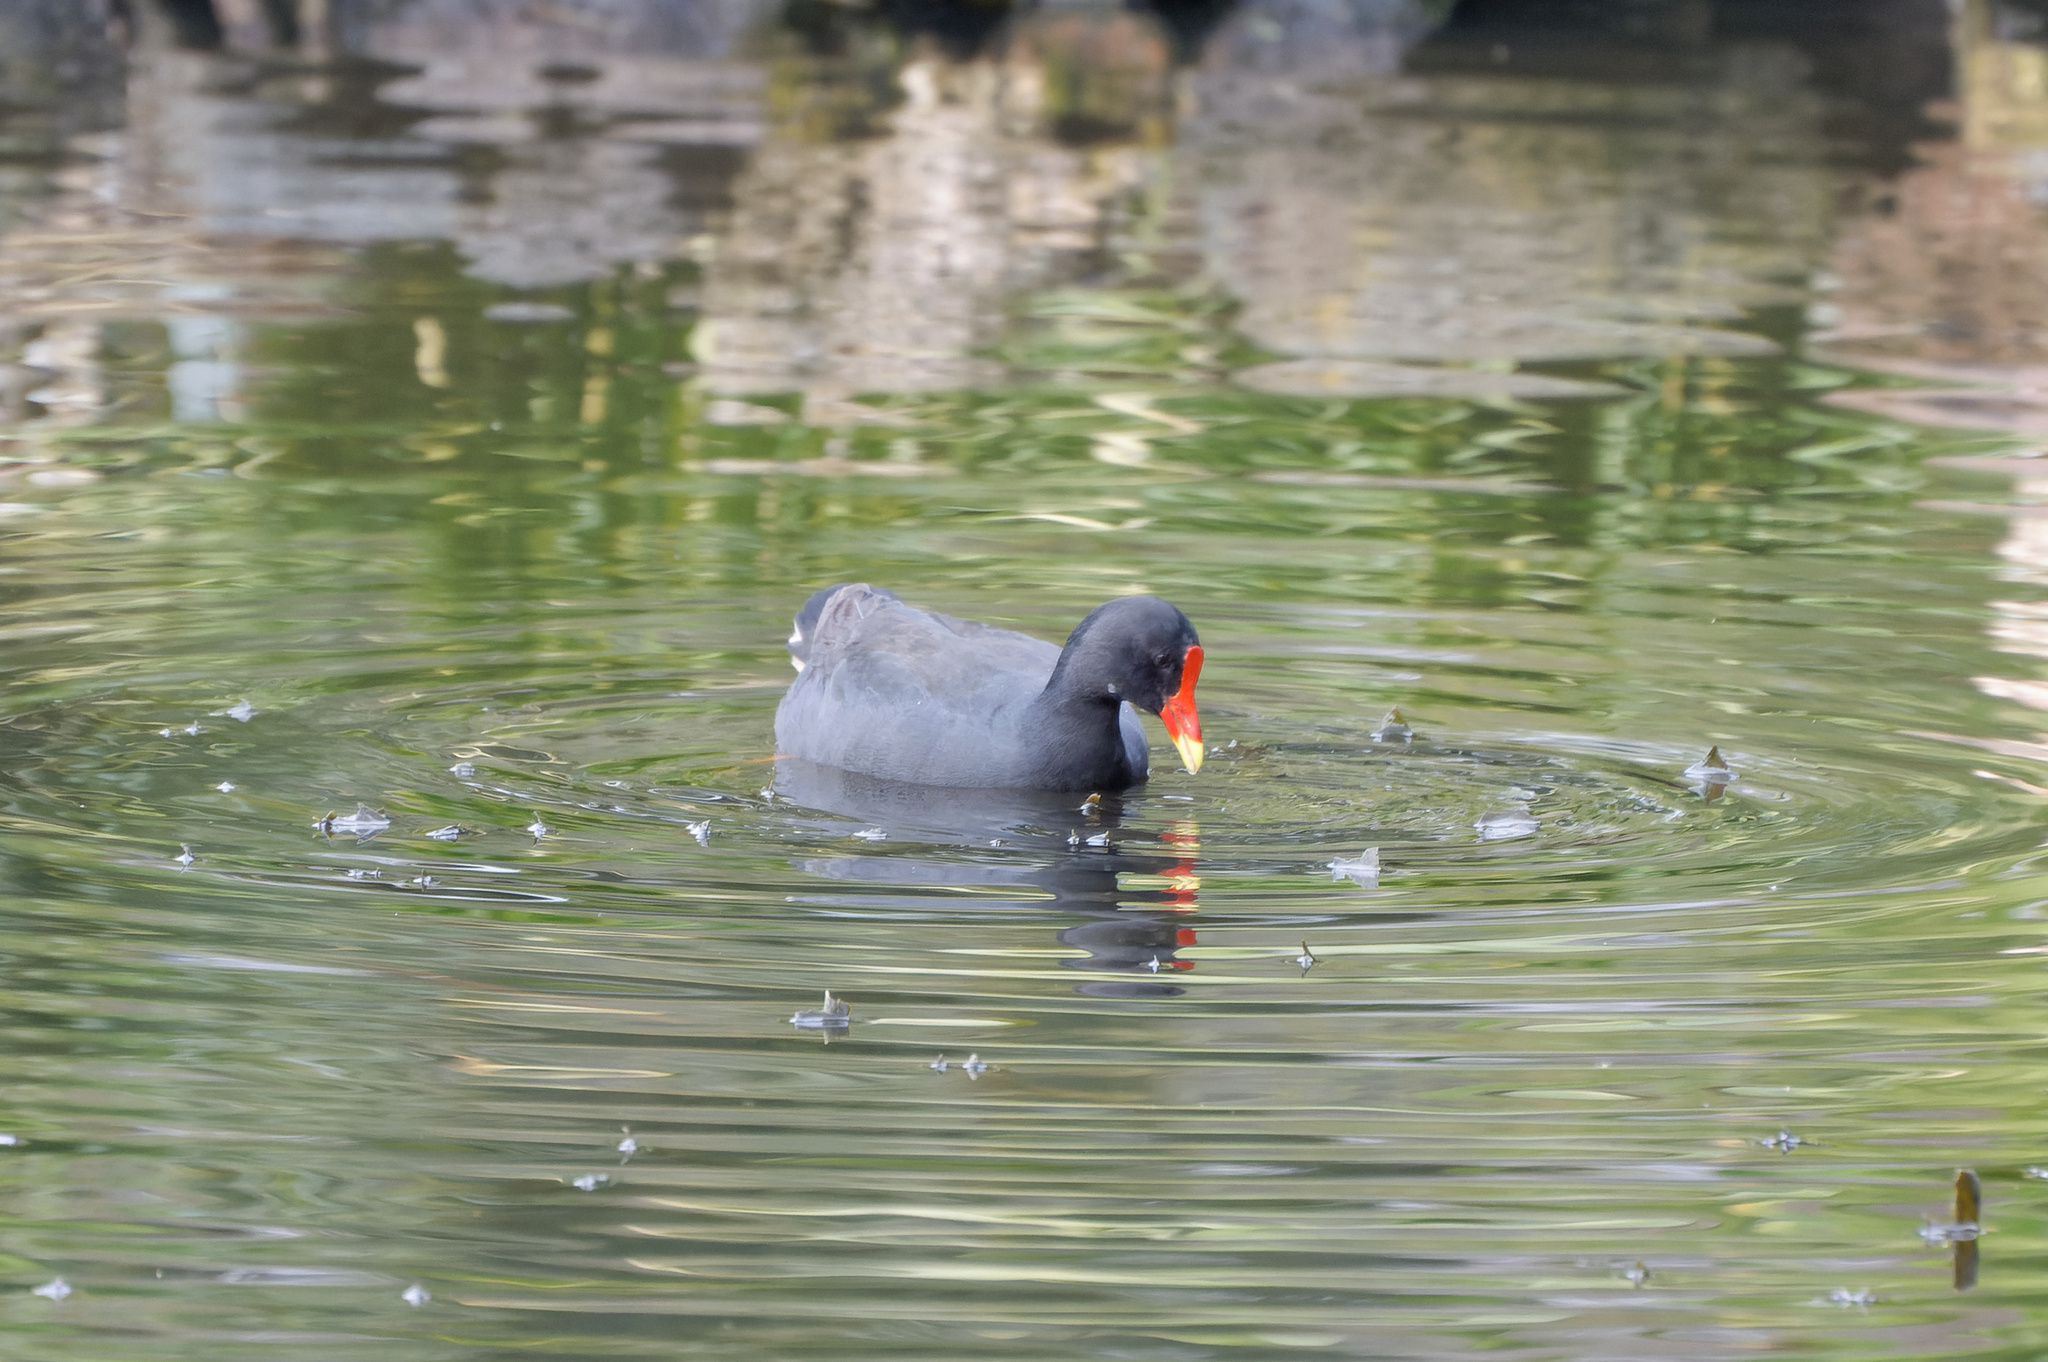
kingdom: Animalia
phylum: Chordata
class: Aves
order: Gruiformes
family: Rallidae
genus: Gallinula
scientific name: Gallinula tenebrosa
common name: Dusky moorhen
